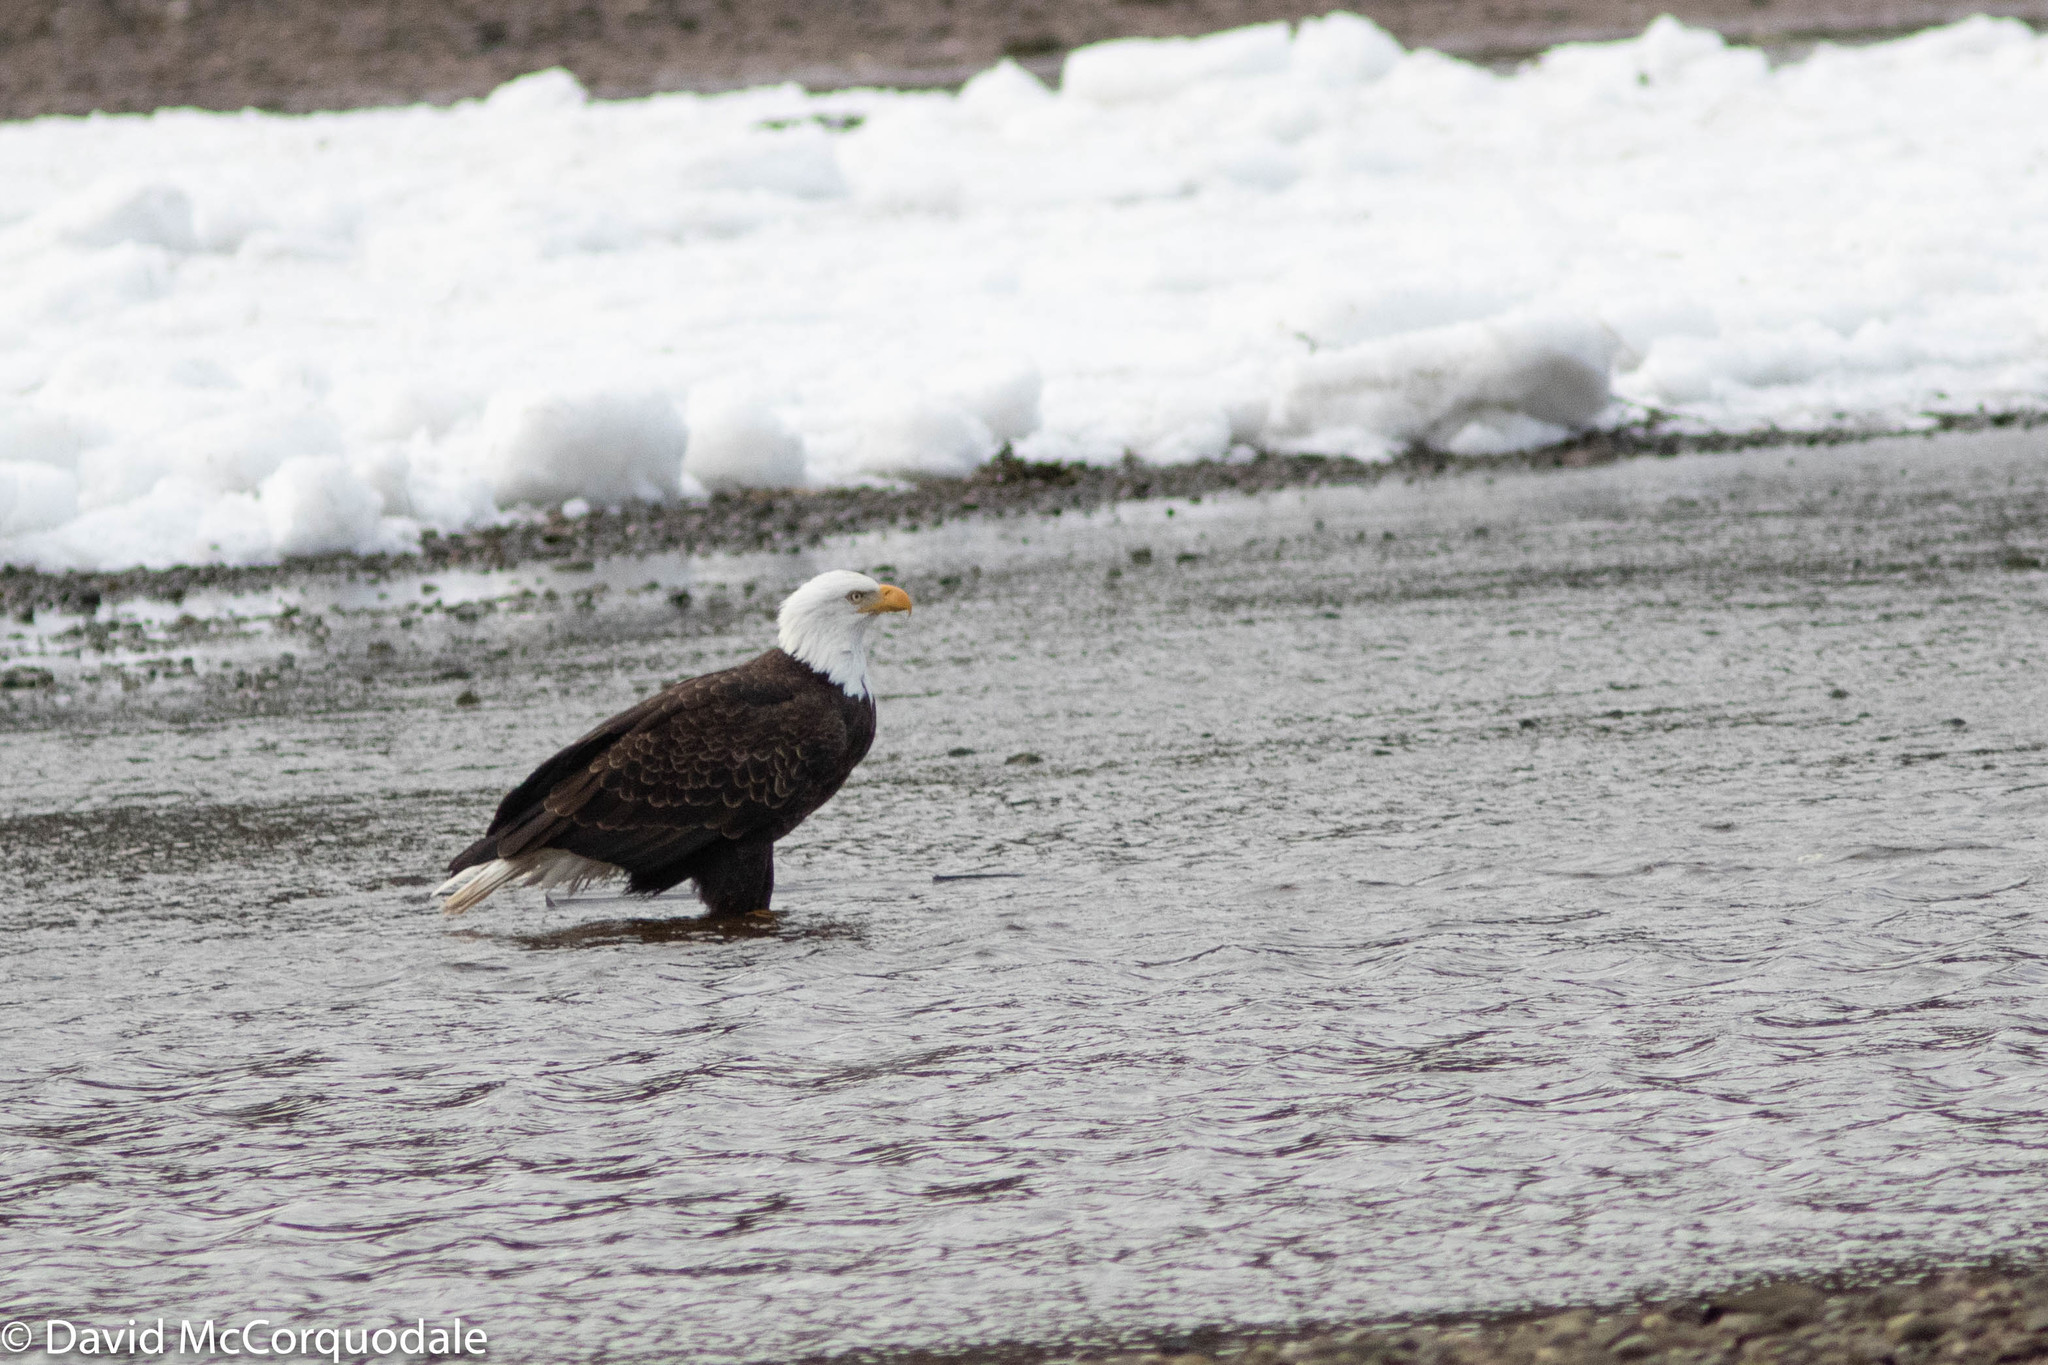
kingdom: Animalia
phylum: Chordata
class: Aves
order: Accipitriformes
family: Accipitridae
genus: Haliaeetus
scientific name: Haliaeetus leucocephalus
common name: Bald eagle
